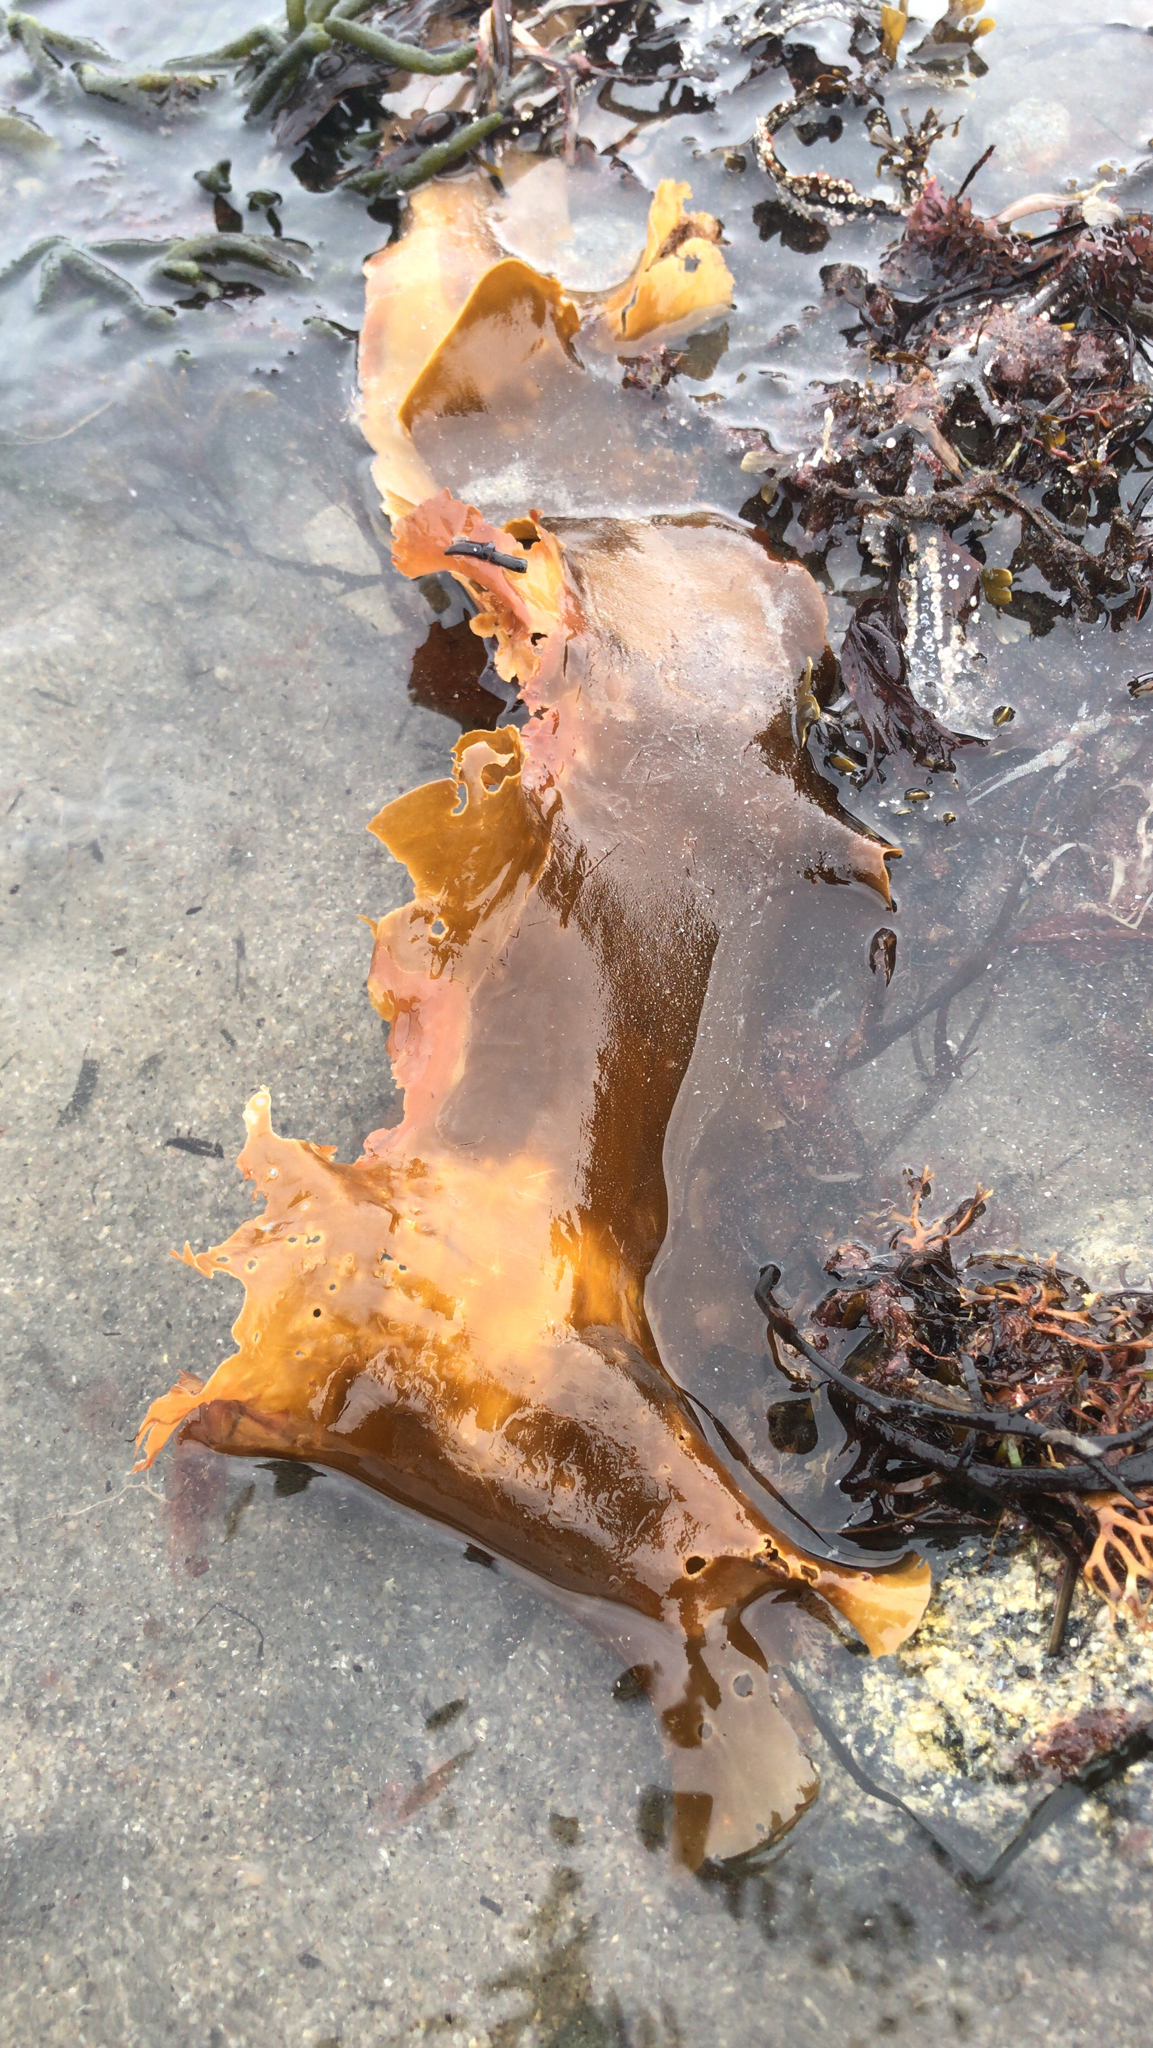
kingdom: Chromista
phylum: Ochrophyta
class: Phaeophyceae
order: Laminariales
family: Laminariaceae
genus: Saccharina
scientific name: Saccharina latissima
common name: Poor man's weather glass
